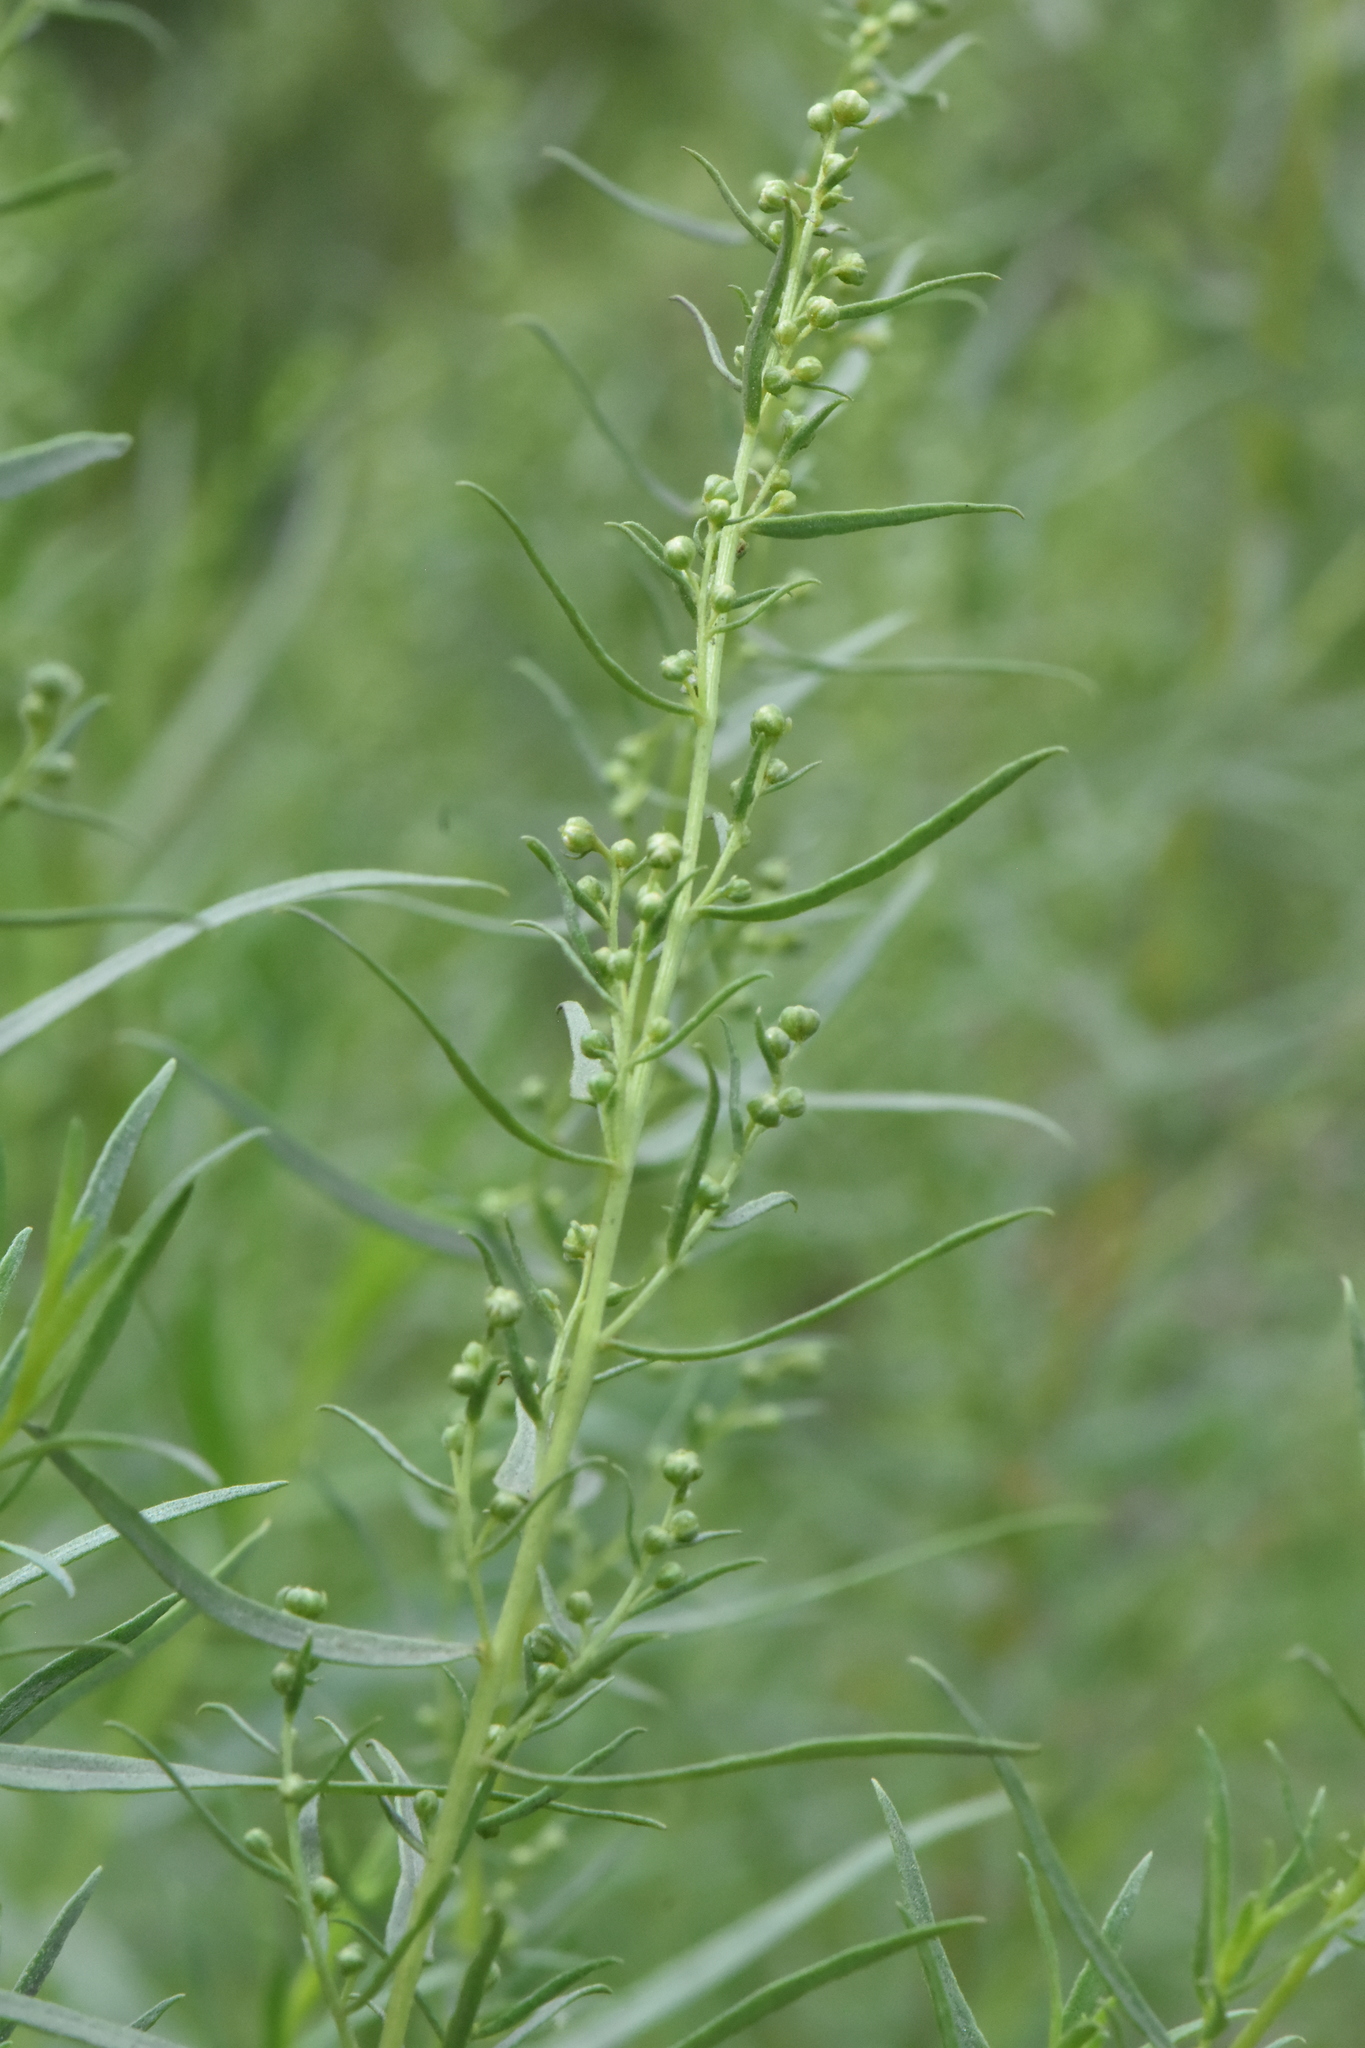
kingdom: Plantae
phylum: Tracheophyta
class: Magnoliopsida
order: Asterales
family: Asteraceae
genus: Artemisia
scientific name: Artemisia dracunculus
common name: Tarragon
